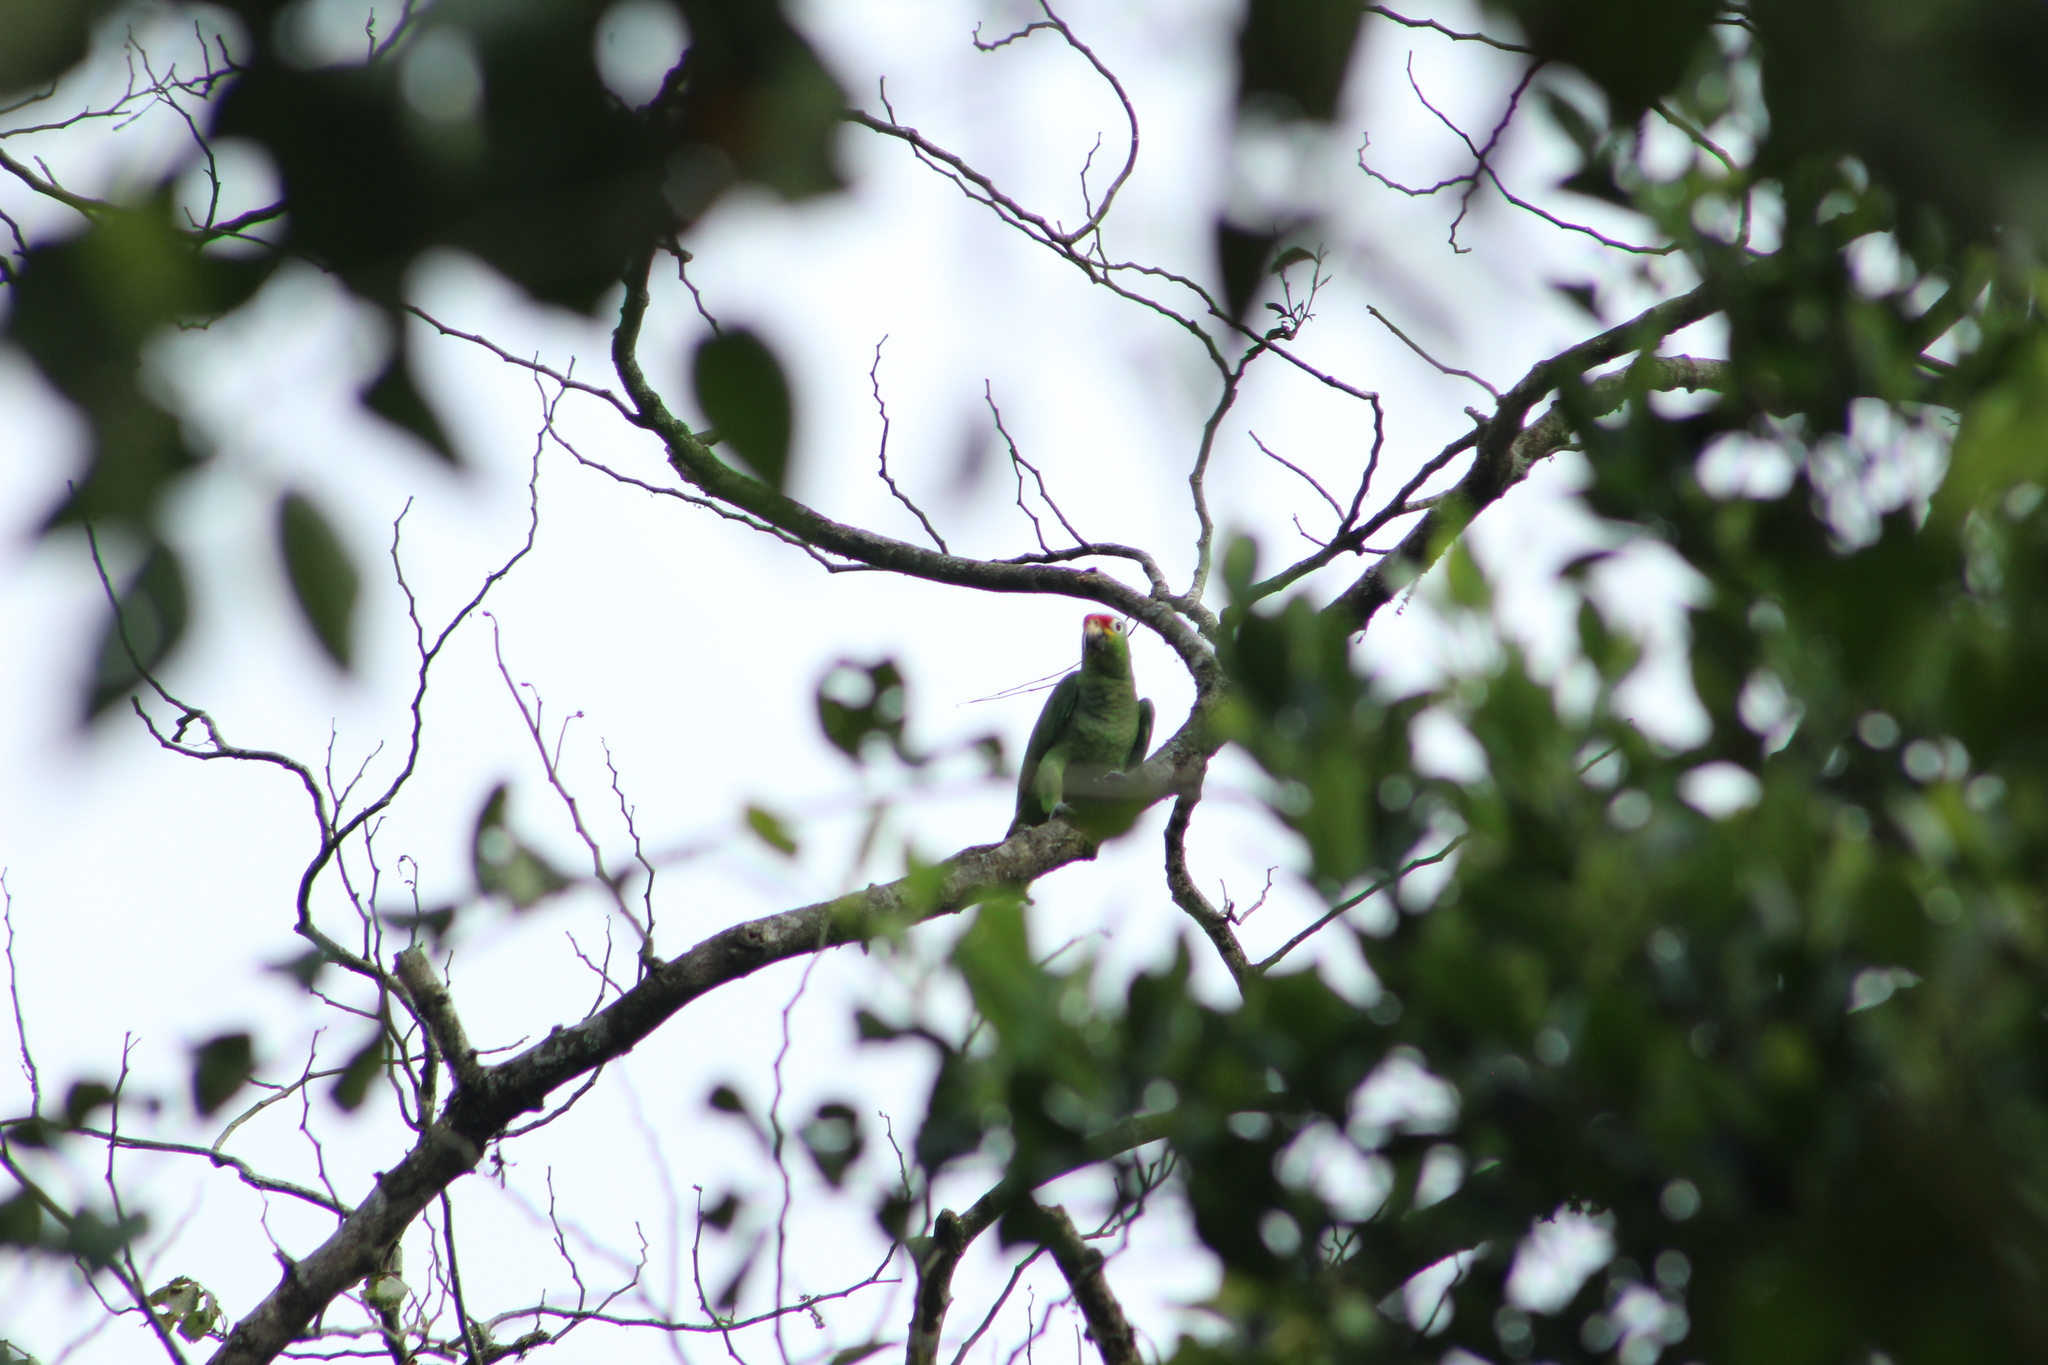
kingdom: Animalia
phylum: Chordata
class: Aves
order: Psittaciformes
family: Psittacidae
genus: Amazona
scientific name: Amazona autumnalis
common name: Red-lored amazon
